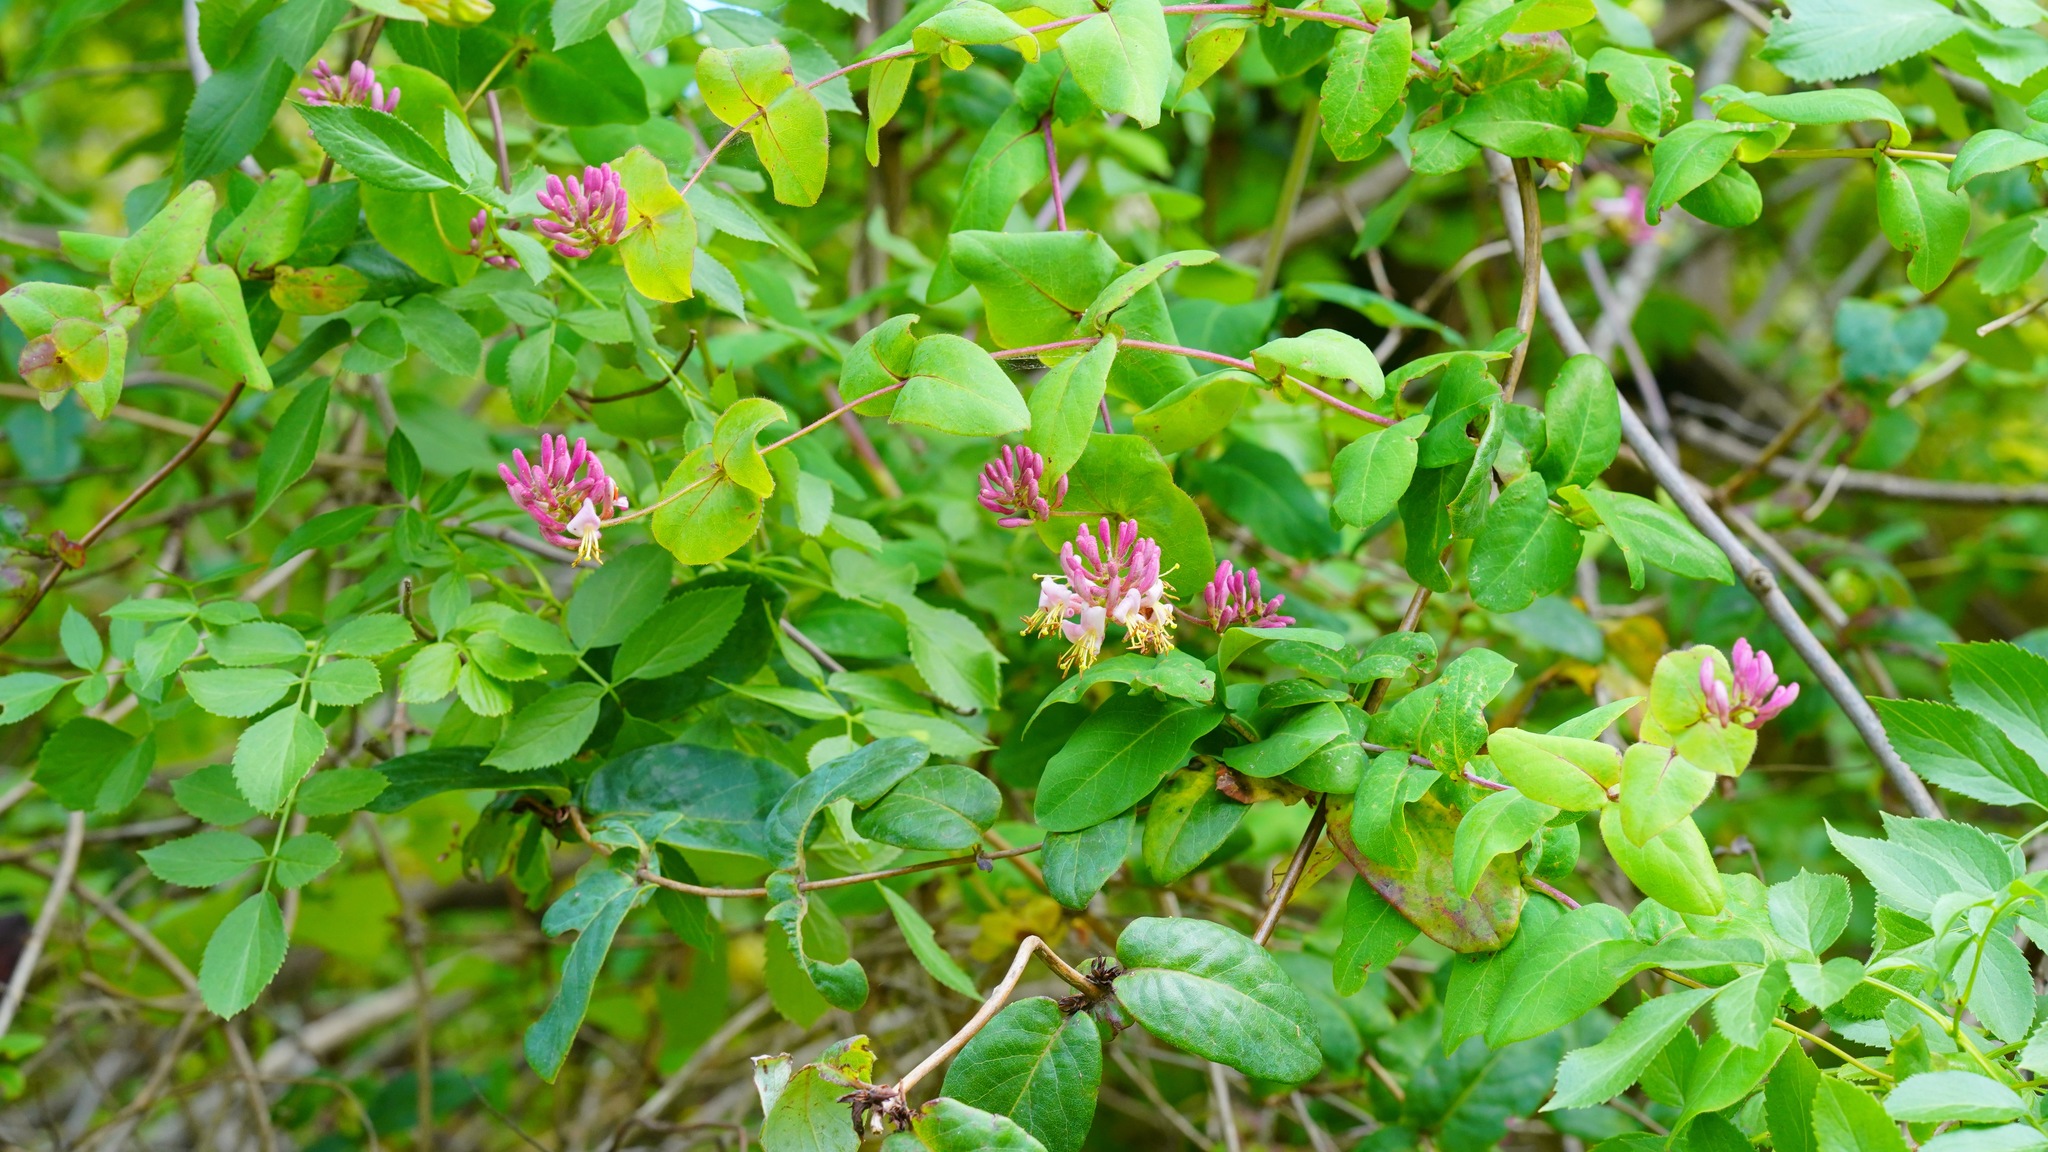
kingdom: Plantae
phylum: Tracheophyta
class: Magnoliopsida
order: Dipsacales
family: Caprifoliaceae
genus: Lonicera
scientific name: Lonicera hispidula
